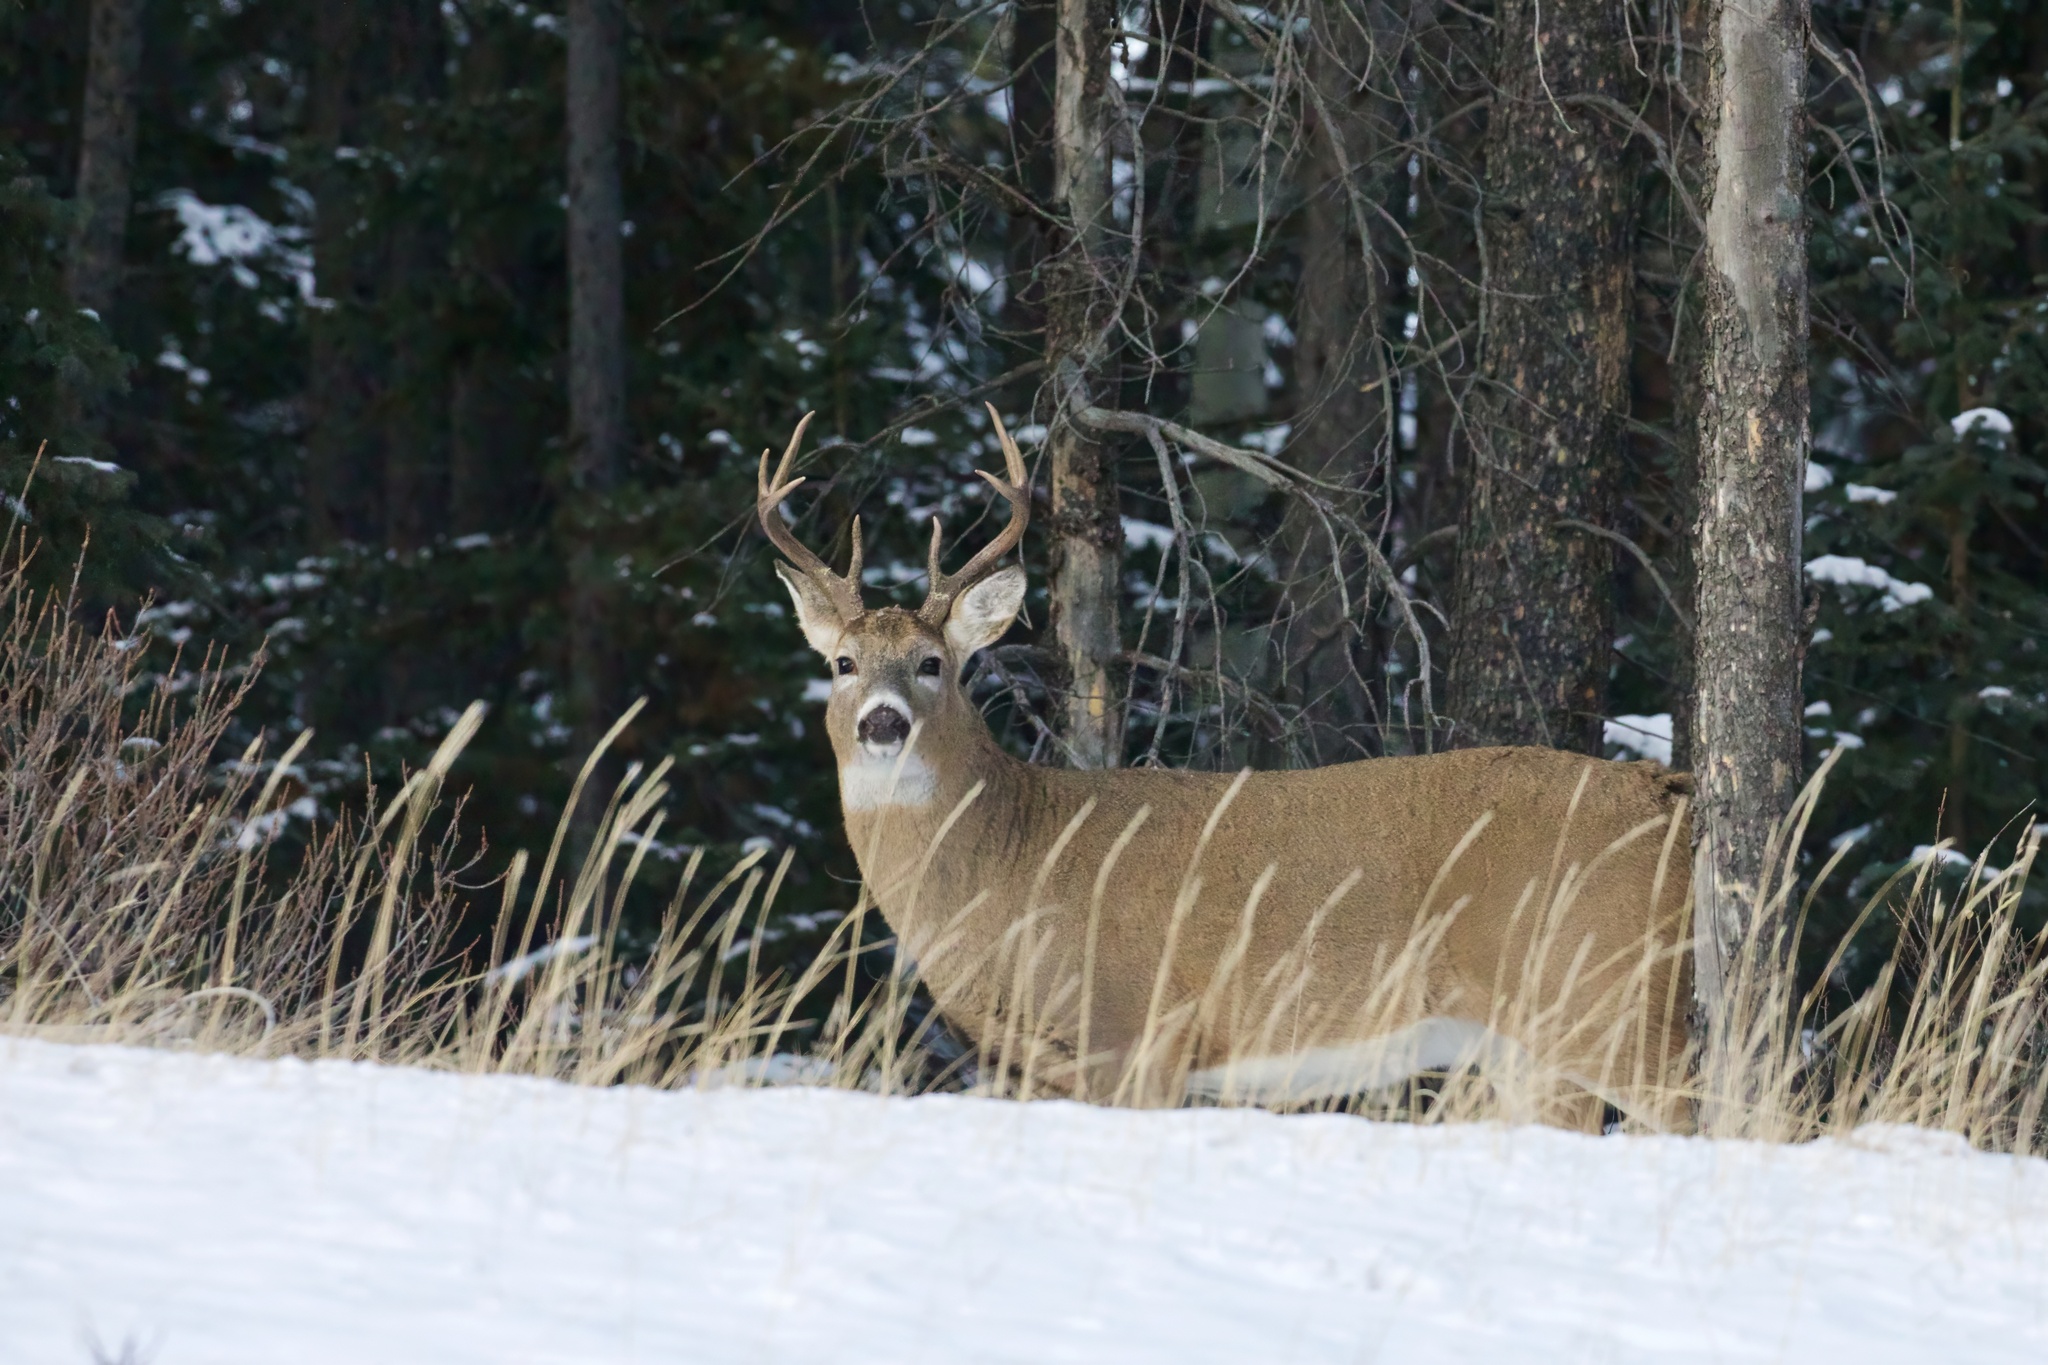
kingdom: Animalia
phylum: Chordata
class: Mammalia
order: Artiodactyla
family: Cervidae
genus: Odocoileus
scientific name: Odocoileus virginianus
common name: White-tailed deer
